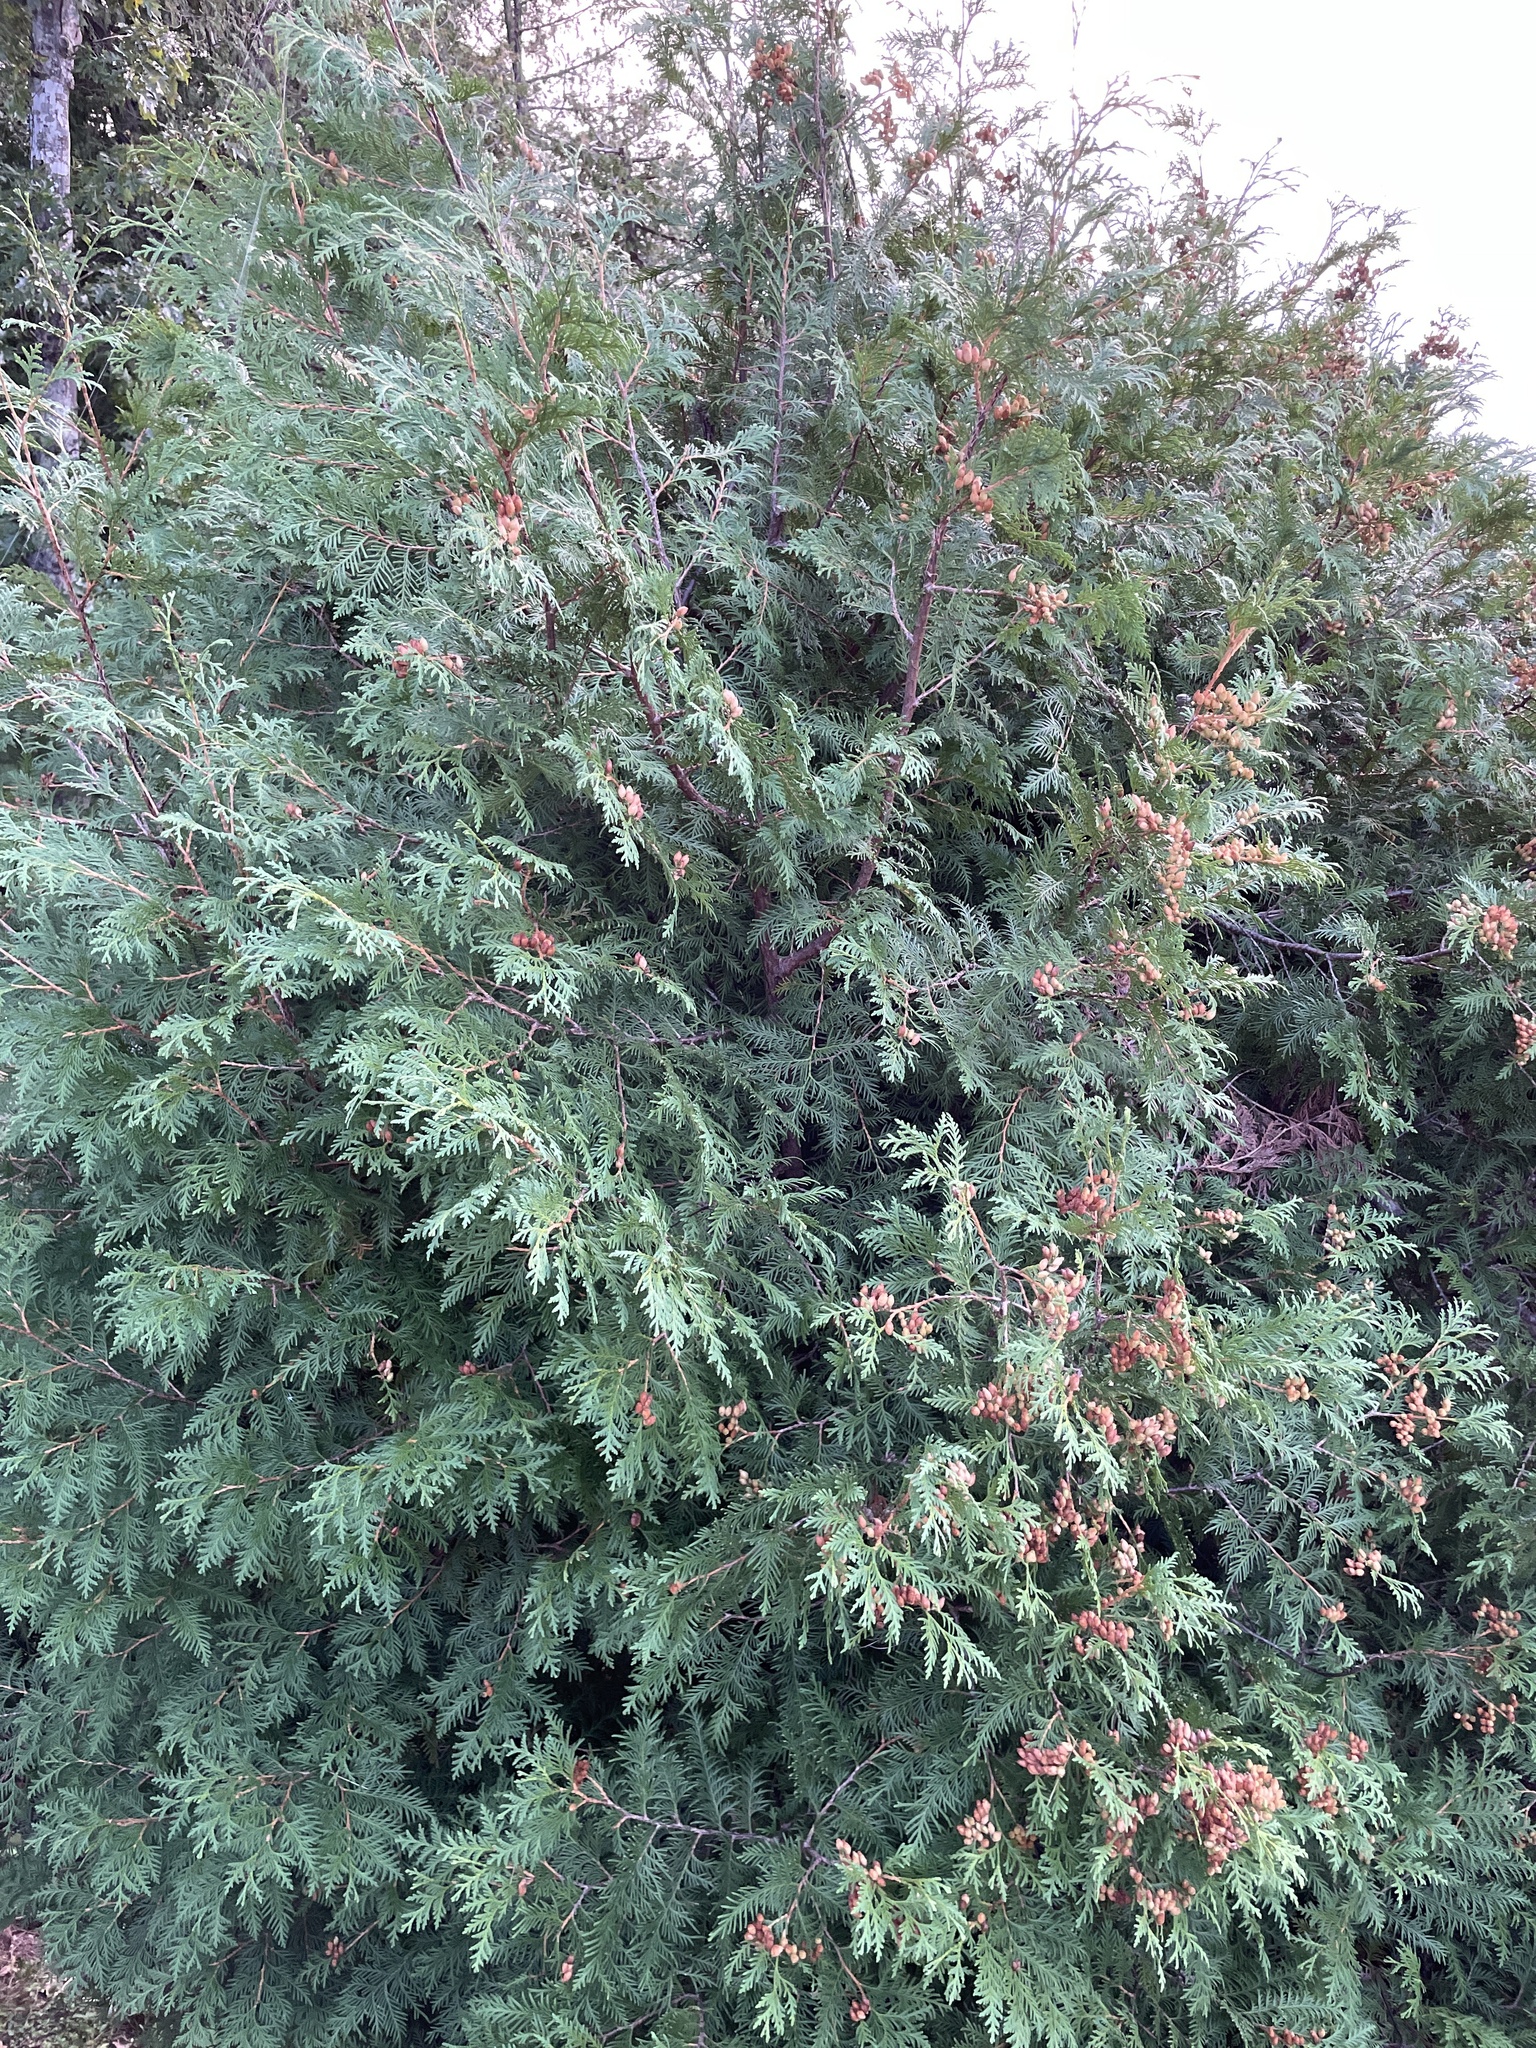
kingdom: Plantae
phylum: Tracheophyta
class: Pinopsida
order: Pinales
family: Cupressaceae
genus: Thuja
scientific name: Thuja occidentalis
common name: Northern white-cedar
